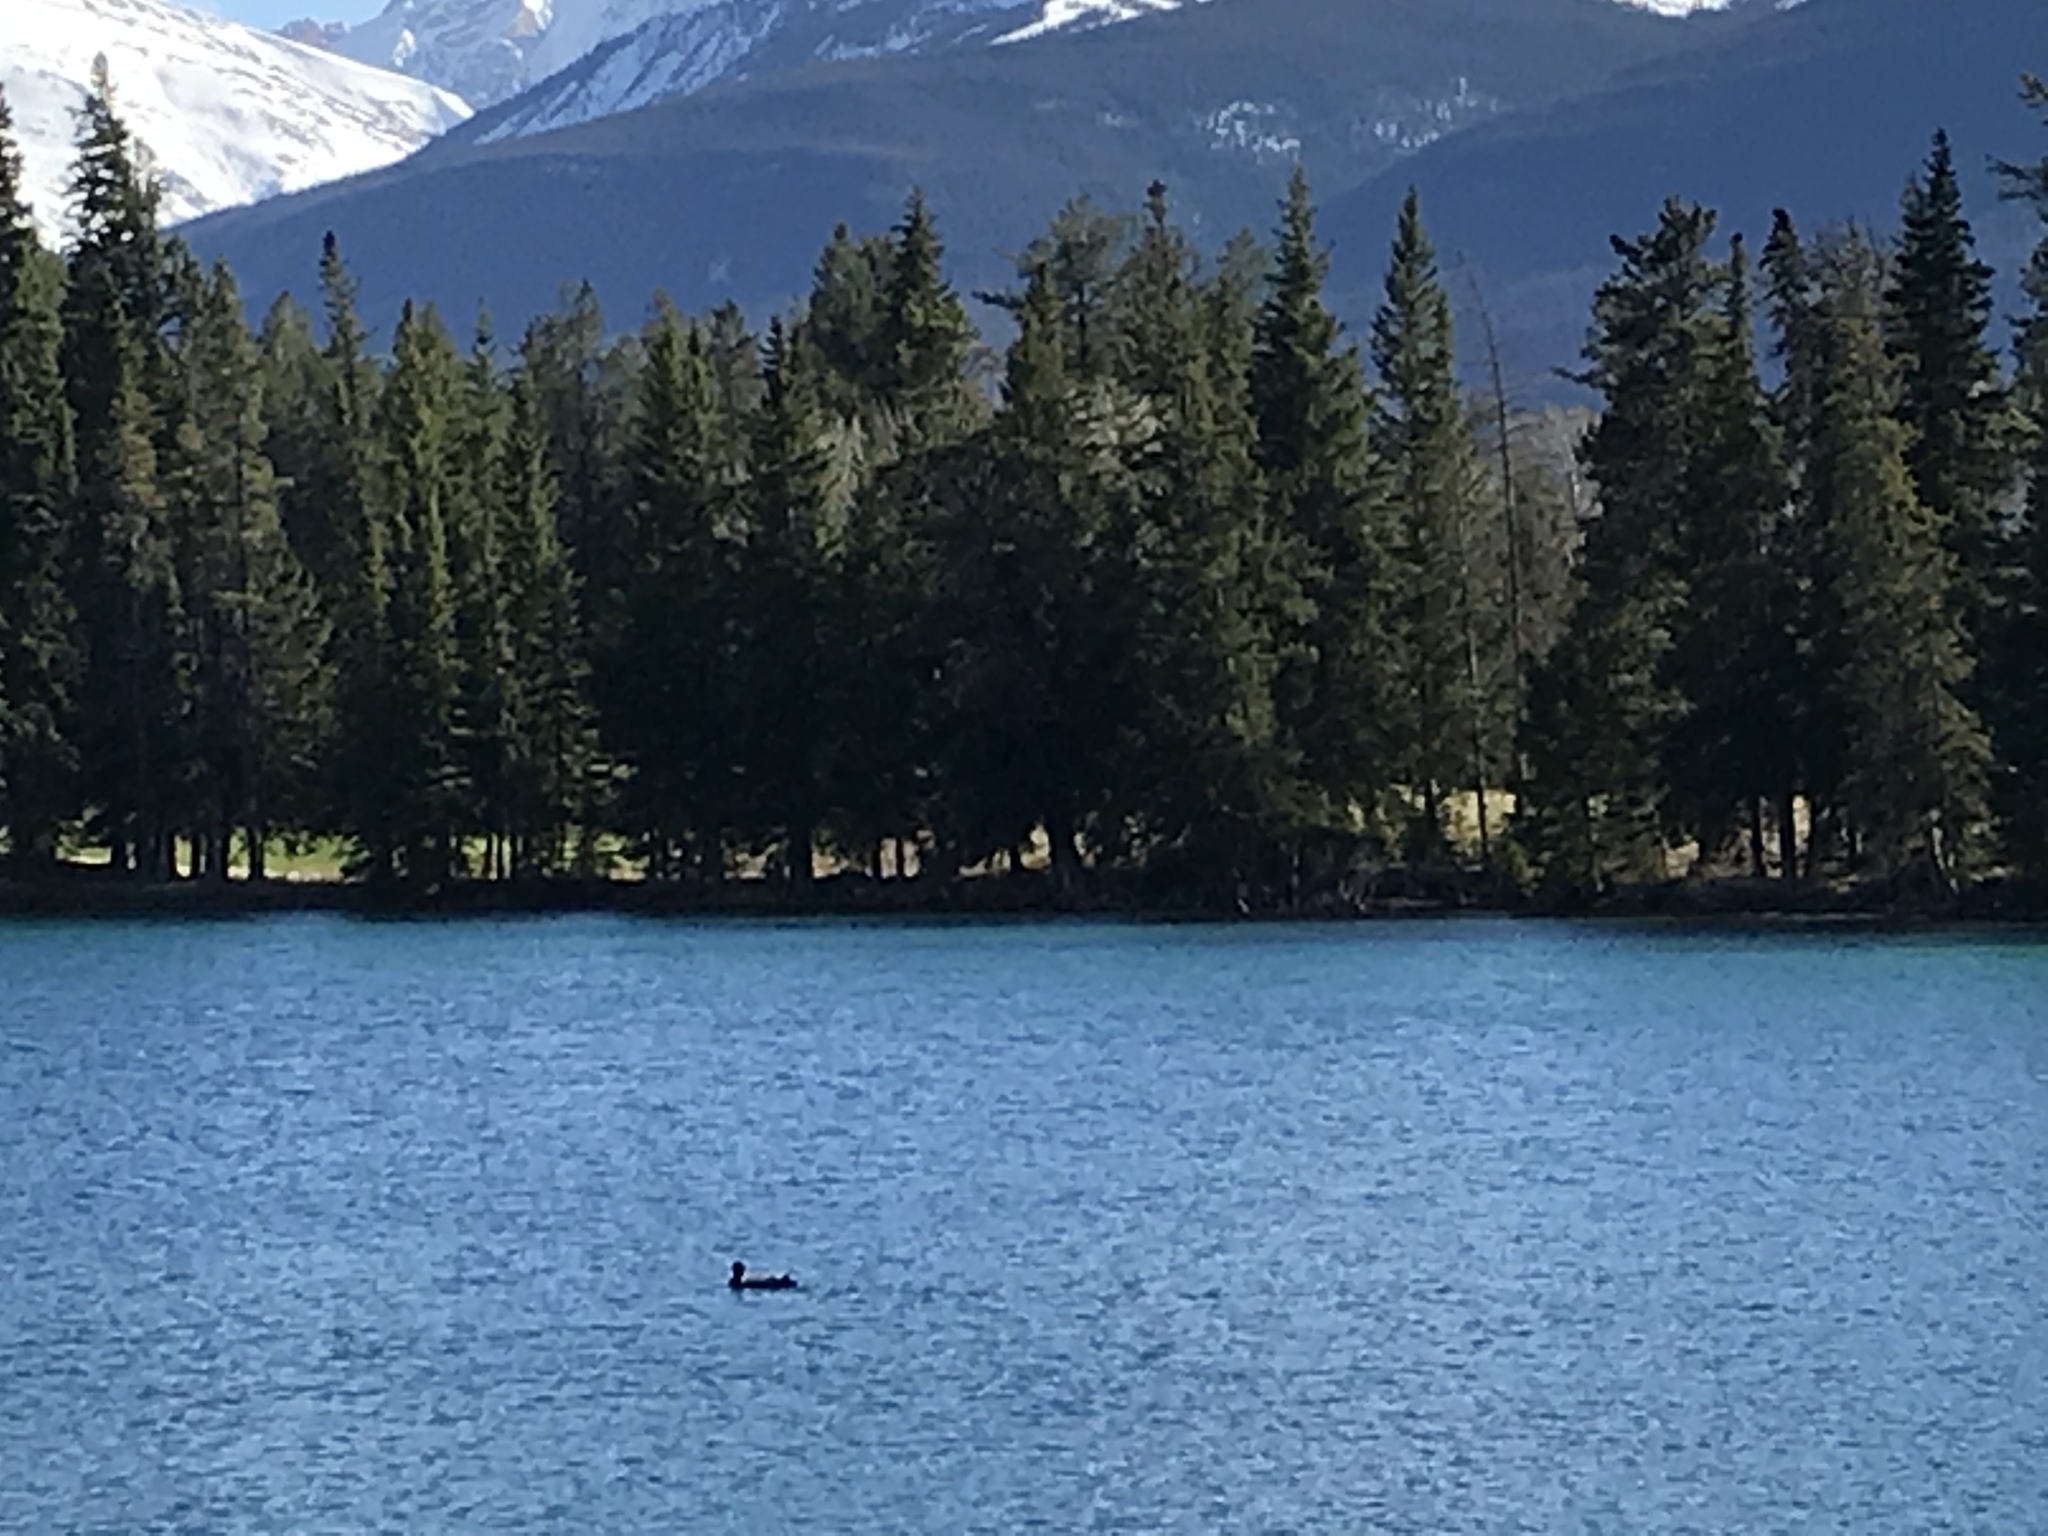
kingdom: Animalia
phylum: Chordata
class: Aves
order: Gaviiformes
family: Gaviidae
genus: Gavia
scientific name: Gavia immer
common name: Common loon
